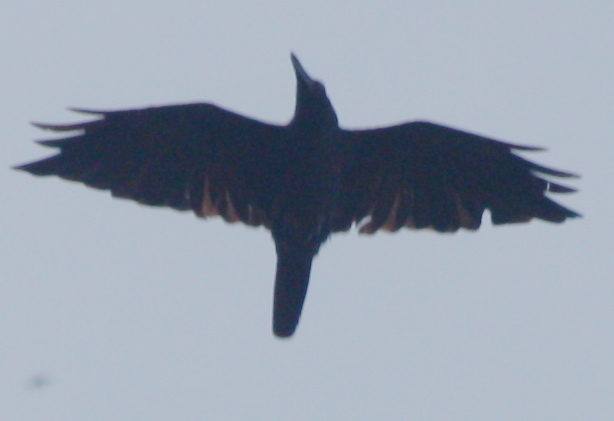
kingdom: Animalia
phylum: Chordata
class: Aves
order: Passeriformes
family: Corvidae
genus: Corvus
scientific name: Corvus enca
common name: Slender-billed crow
